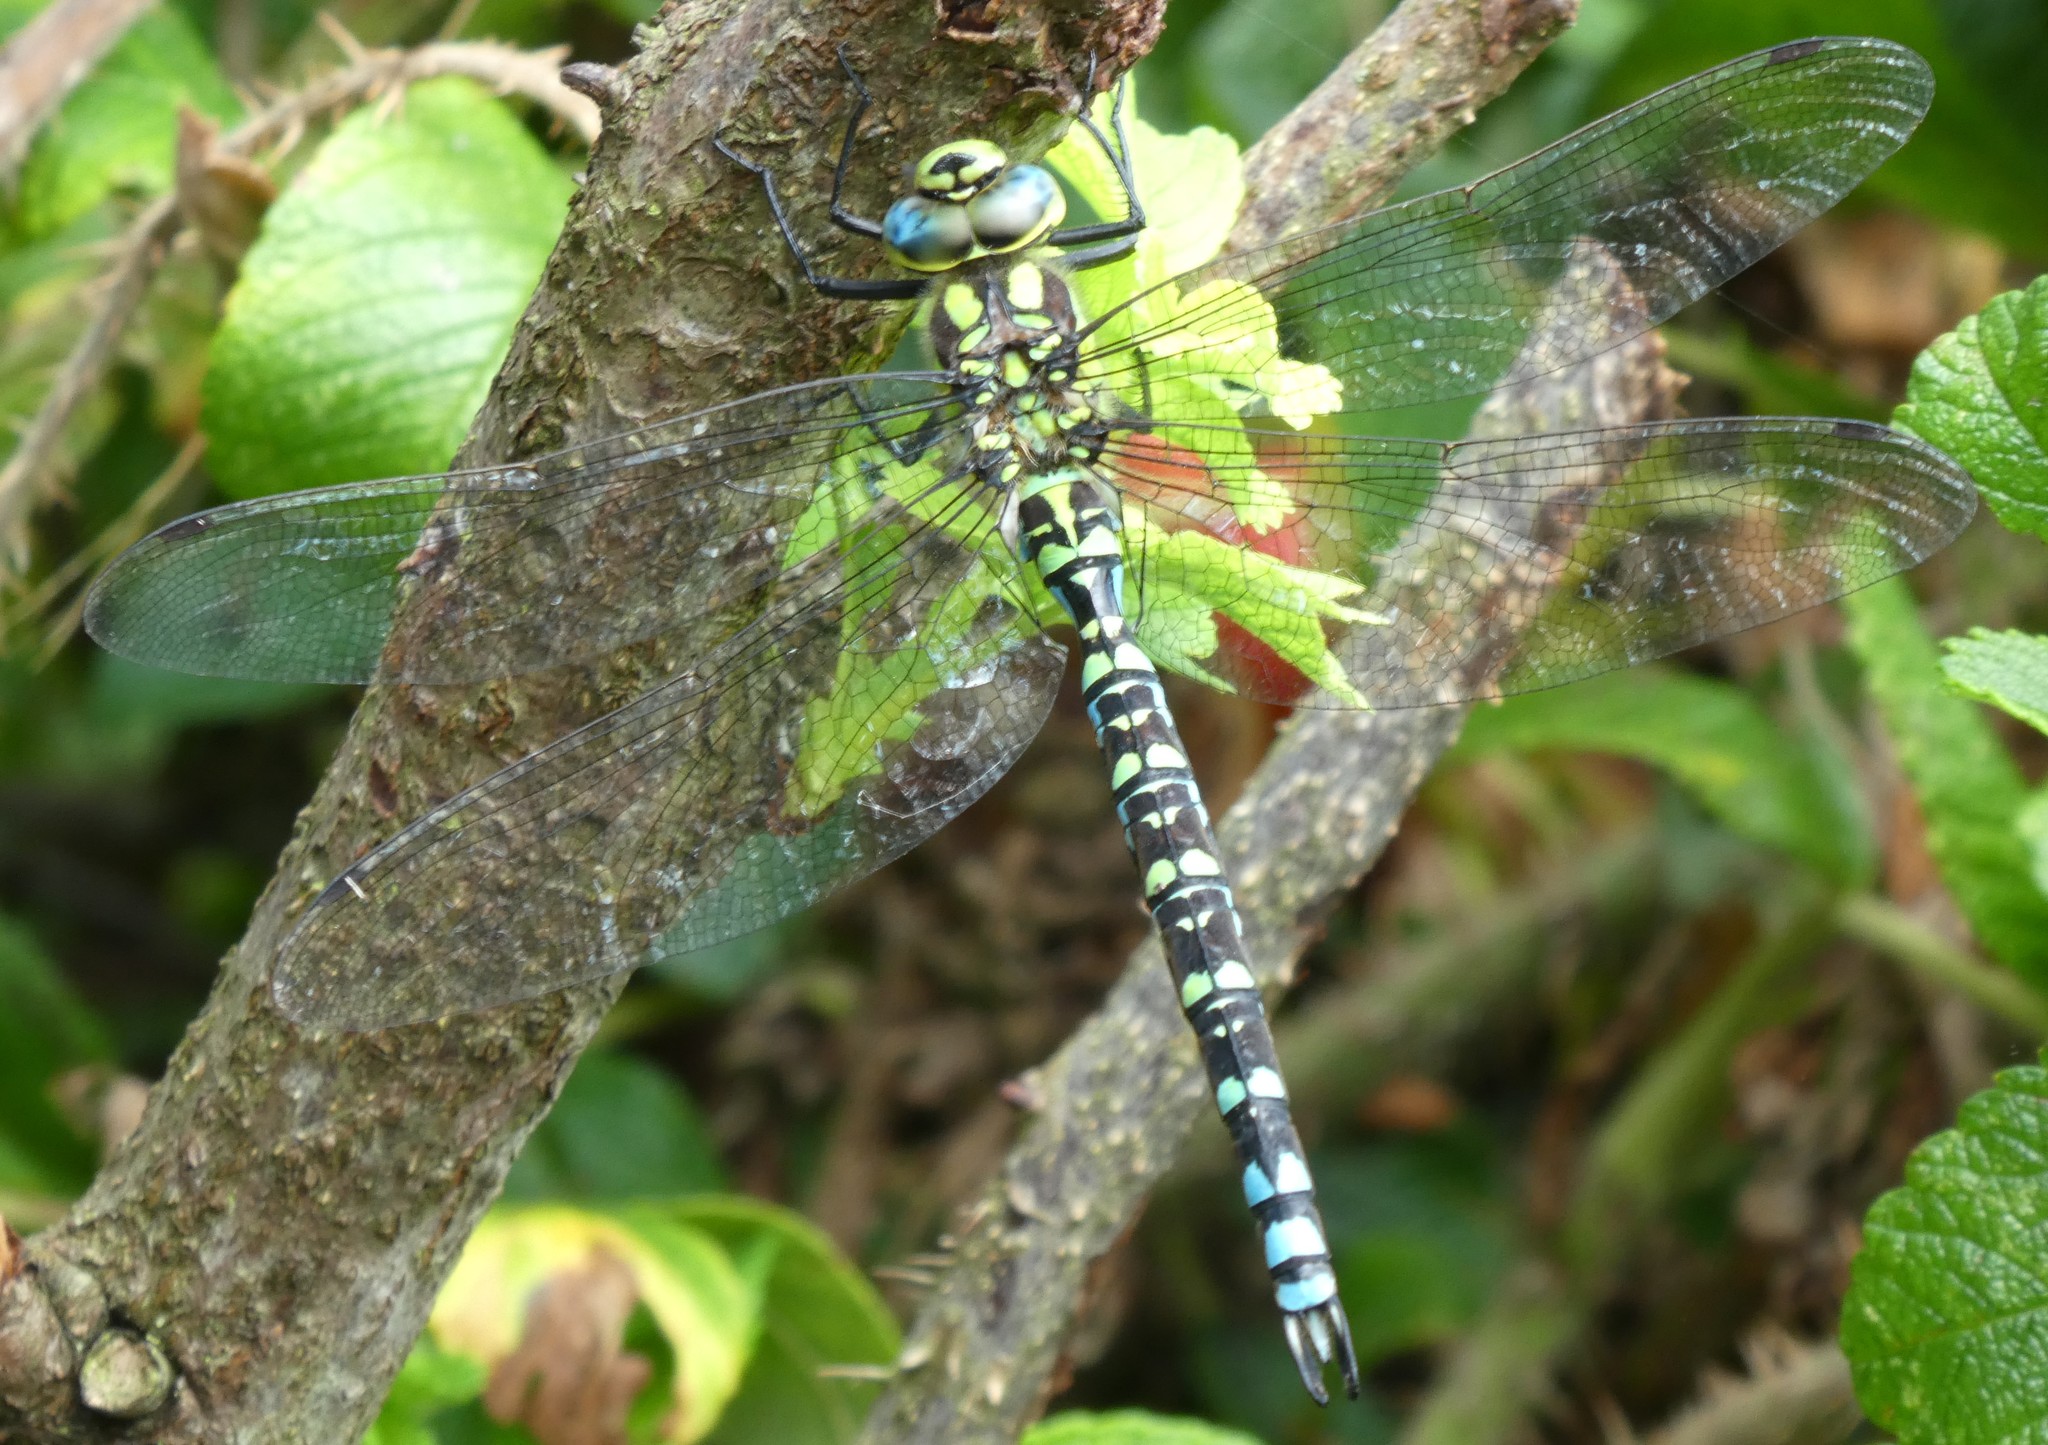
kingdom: Animalia
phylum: Arthropoda
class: Insecta
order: Odonata
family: Aeshnidae
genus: Aeshna
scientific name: Aeshna cyanea
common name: Southern hawker
